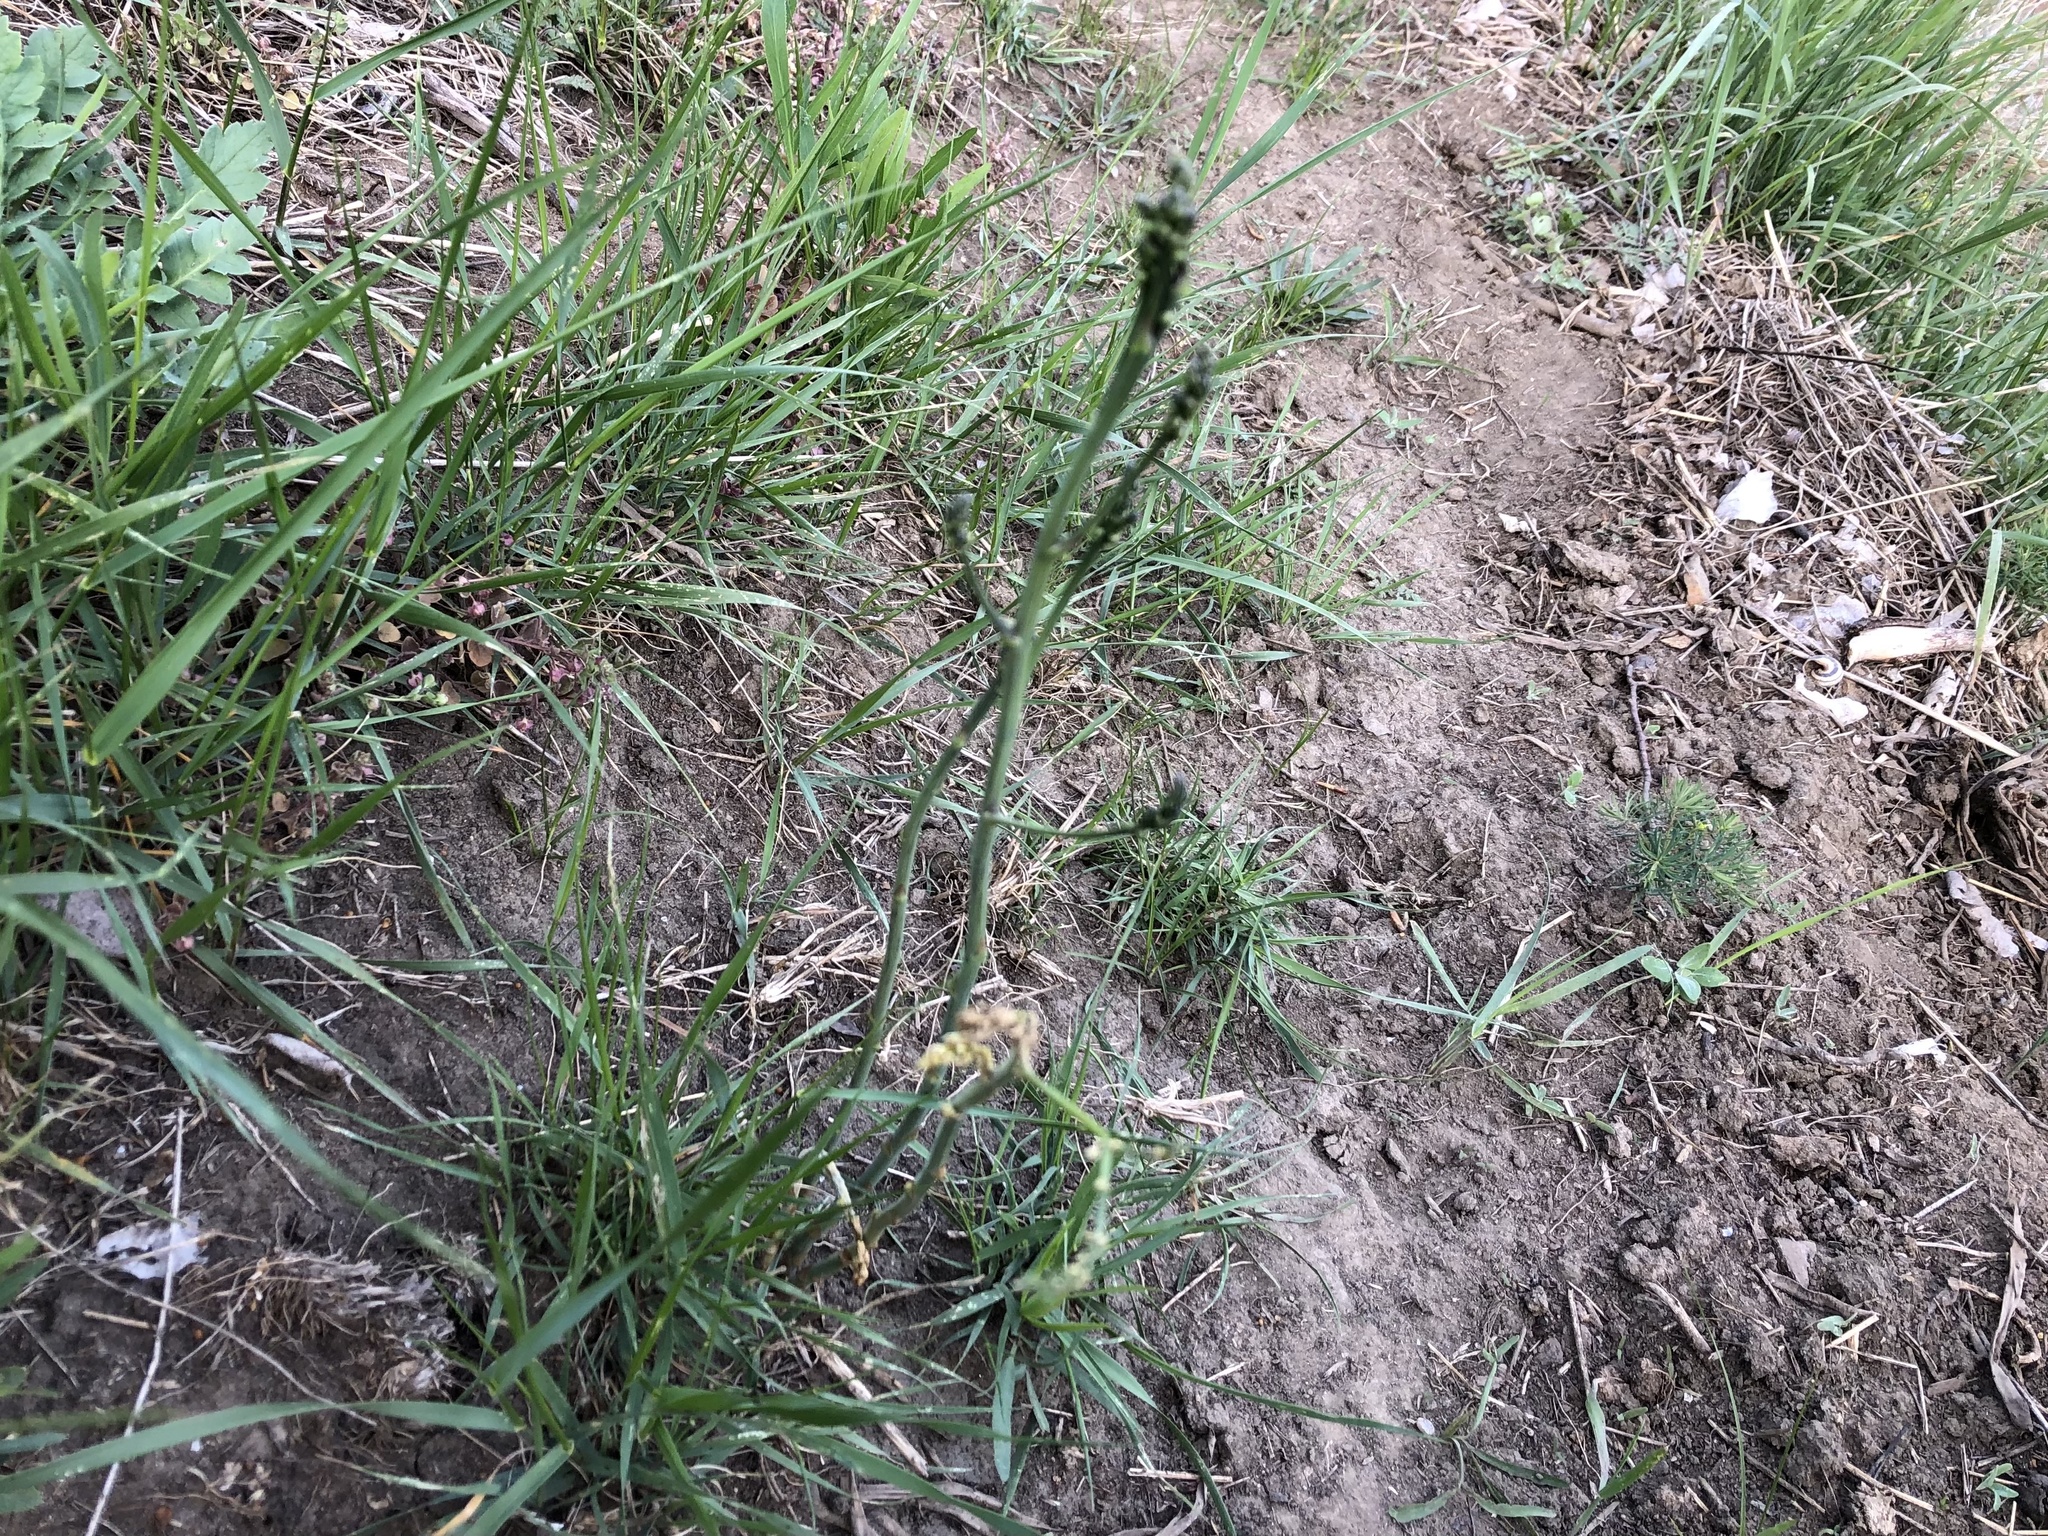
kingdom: Plantae
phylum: Tracheophyta
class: Liliopsida
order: Asparagales
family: Asparagaceae
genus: Asparagus
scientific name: Asparagus officinalis
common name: Garden asparagus
